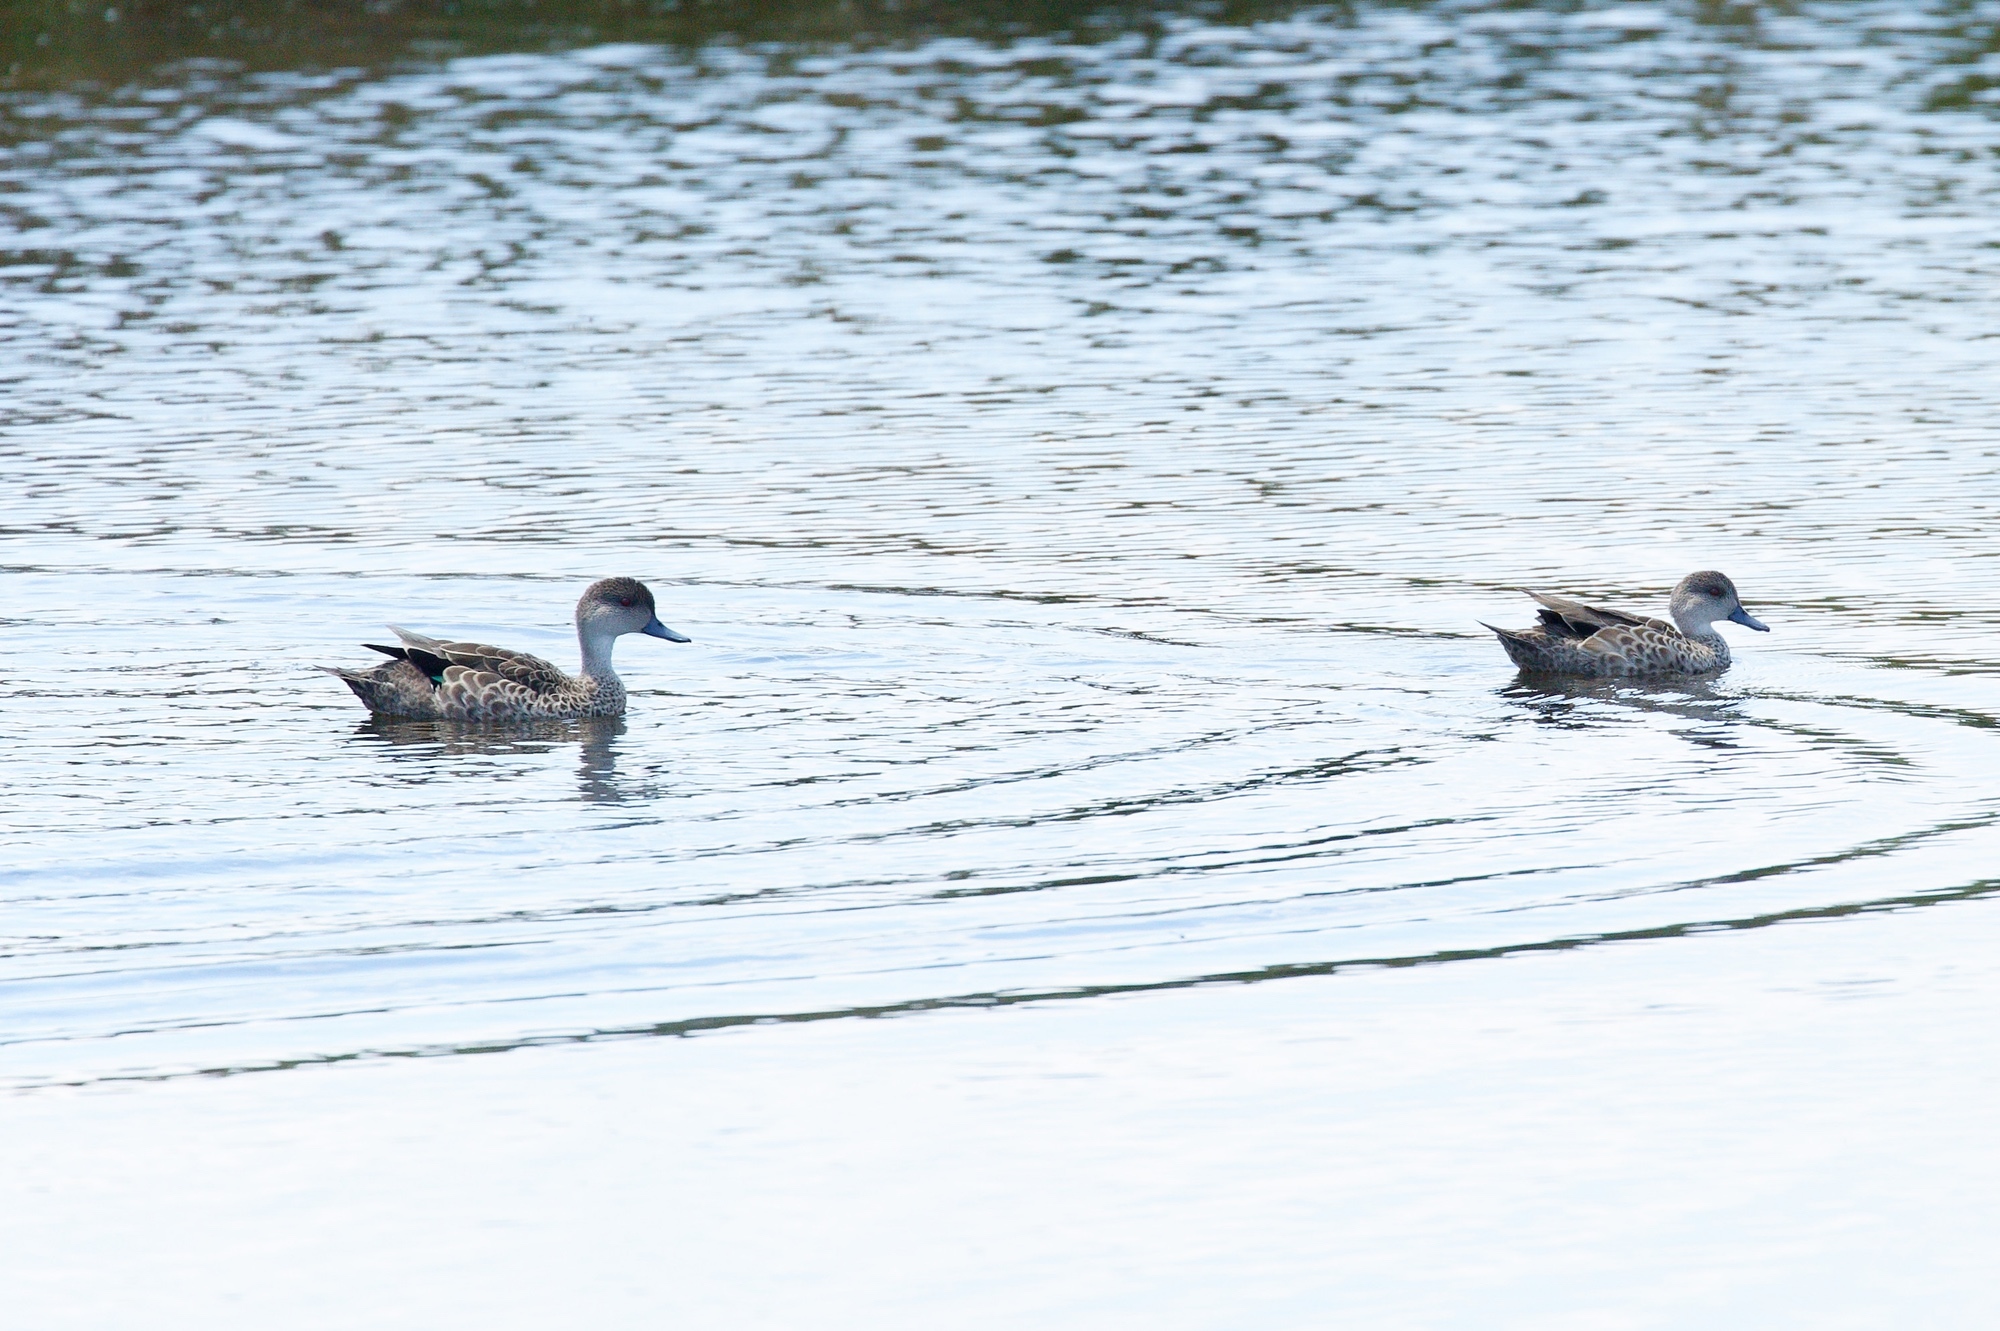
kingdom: Animalia
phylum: Chordata
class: Aves
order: Anseriformes
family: Anatidae
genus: Anas
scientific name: Anas gracilis
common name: Grey teal
